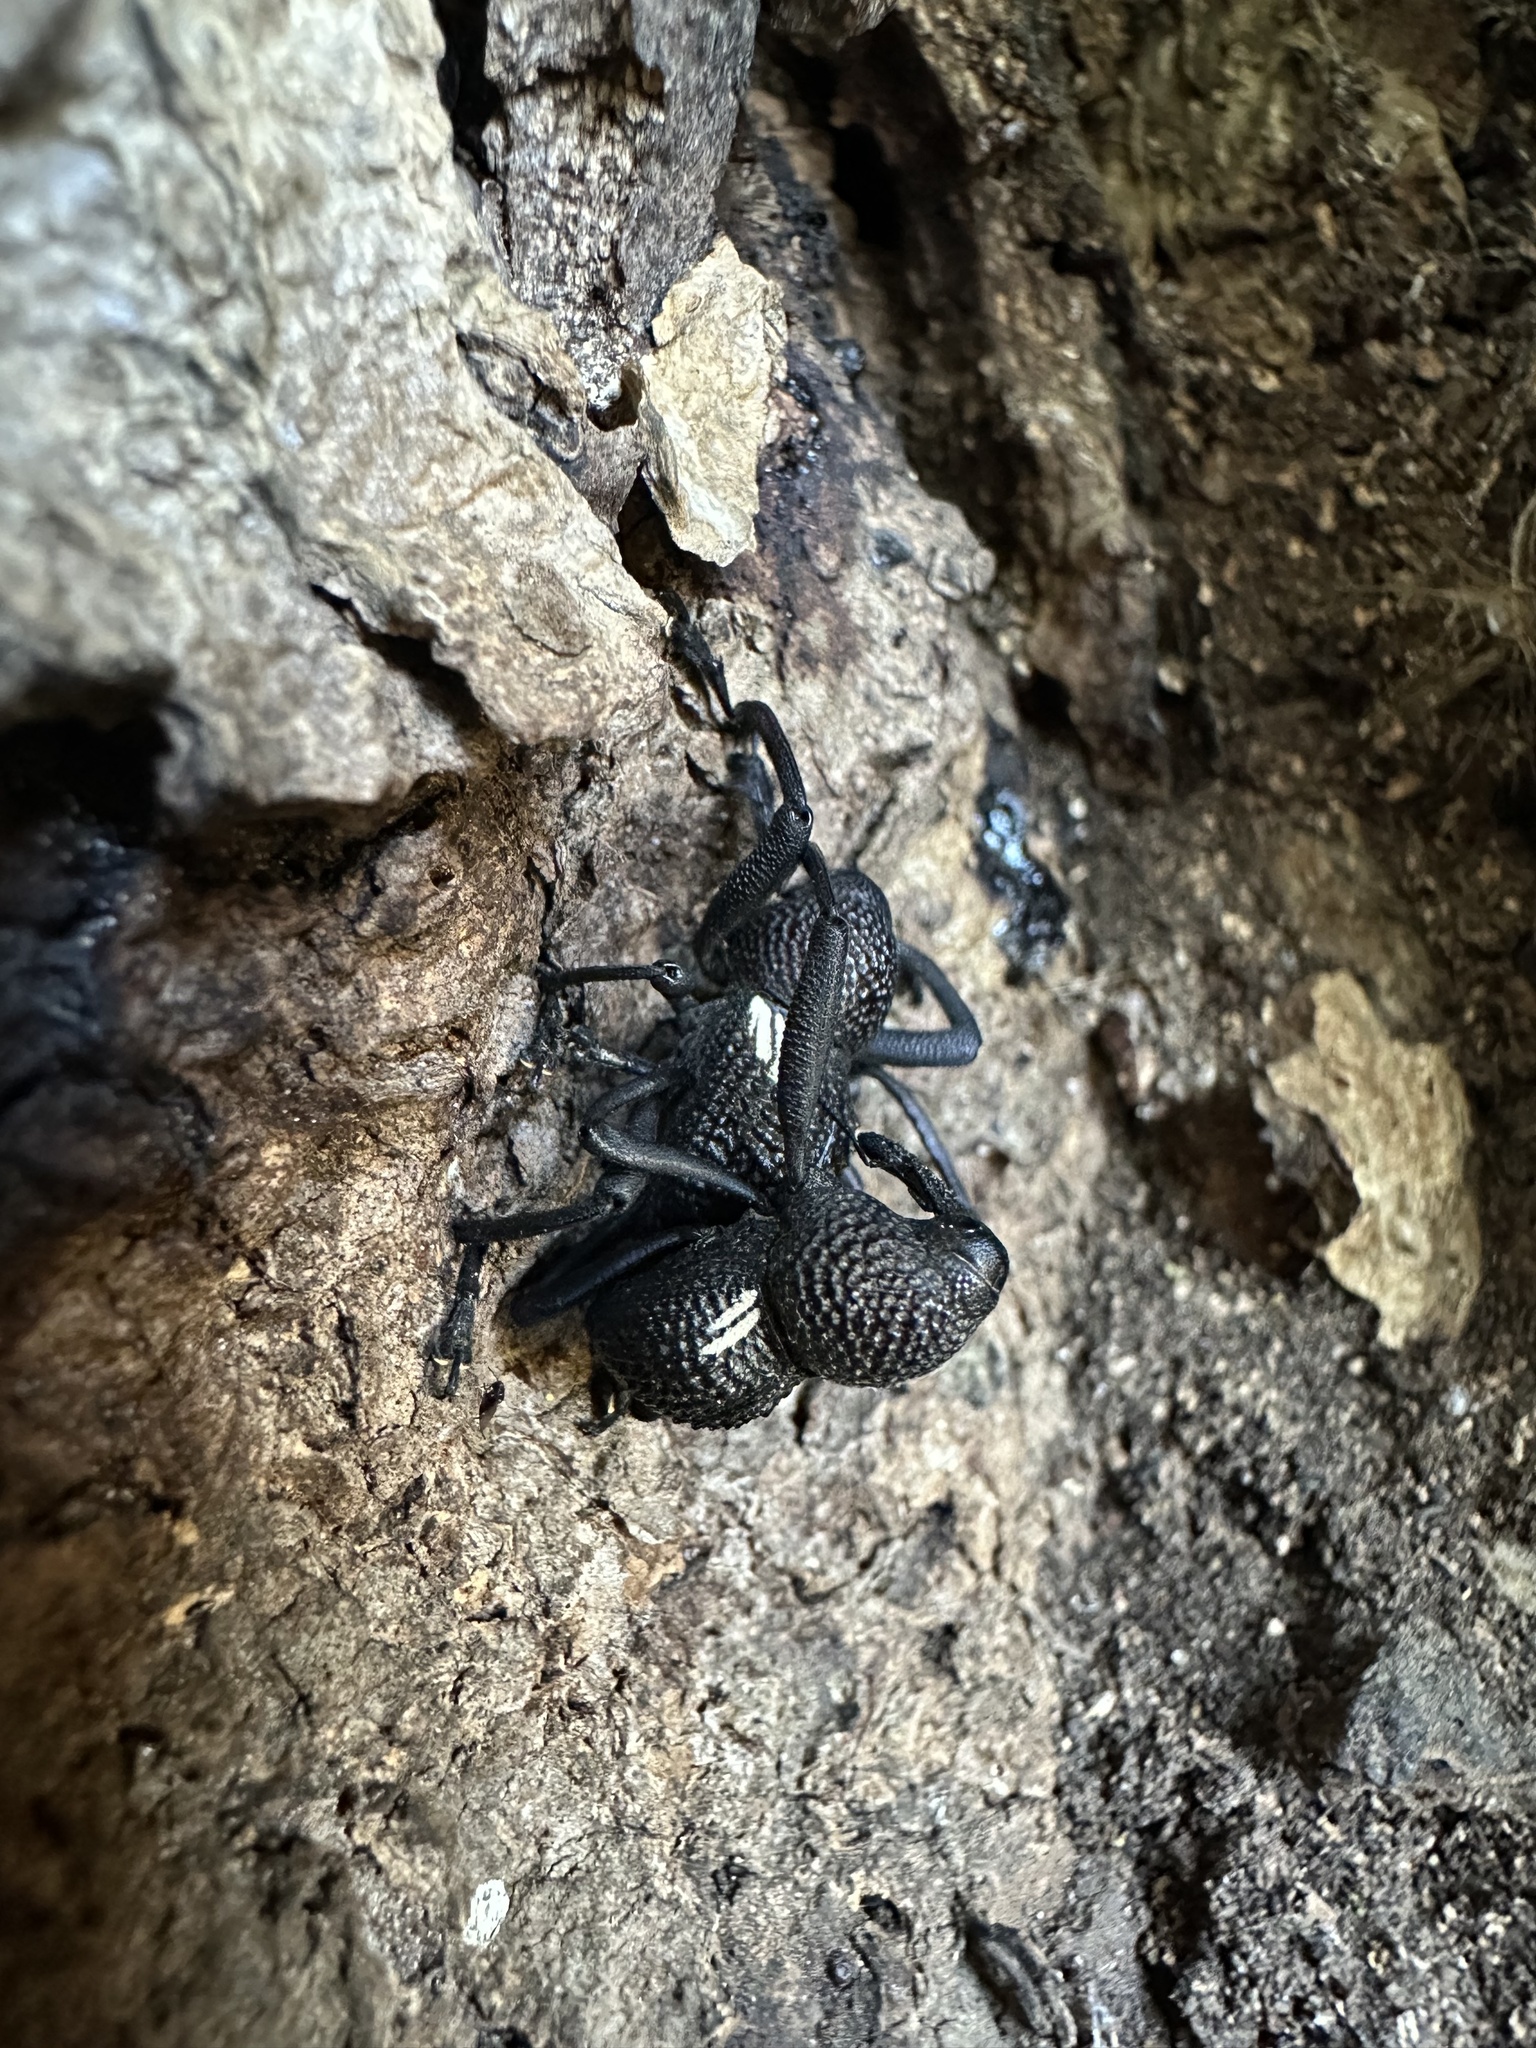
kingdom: Animalia
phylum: Arthropoda
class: Insecta
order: Coleoptera
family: Curculionidae
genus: Rhyephenes
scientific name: Rhyephenes humeralis
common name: Araè±ita chilena del pino
